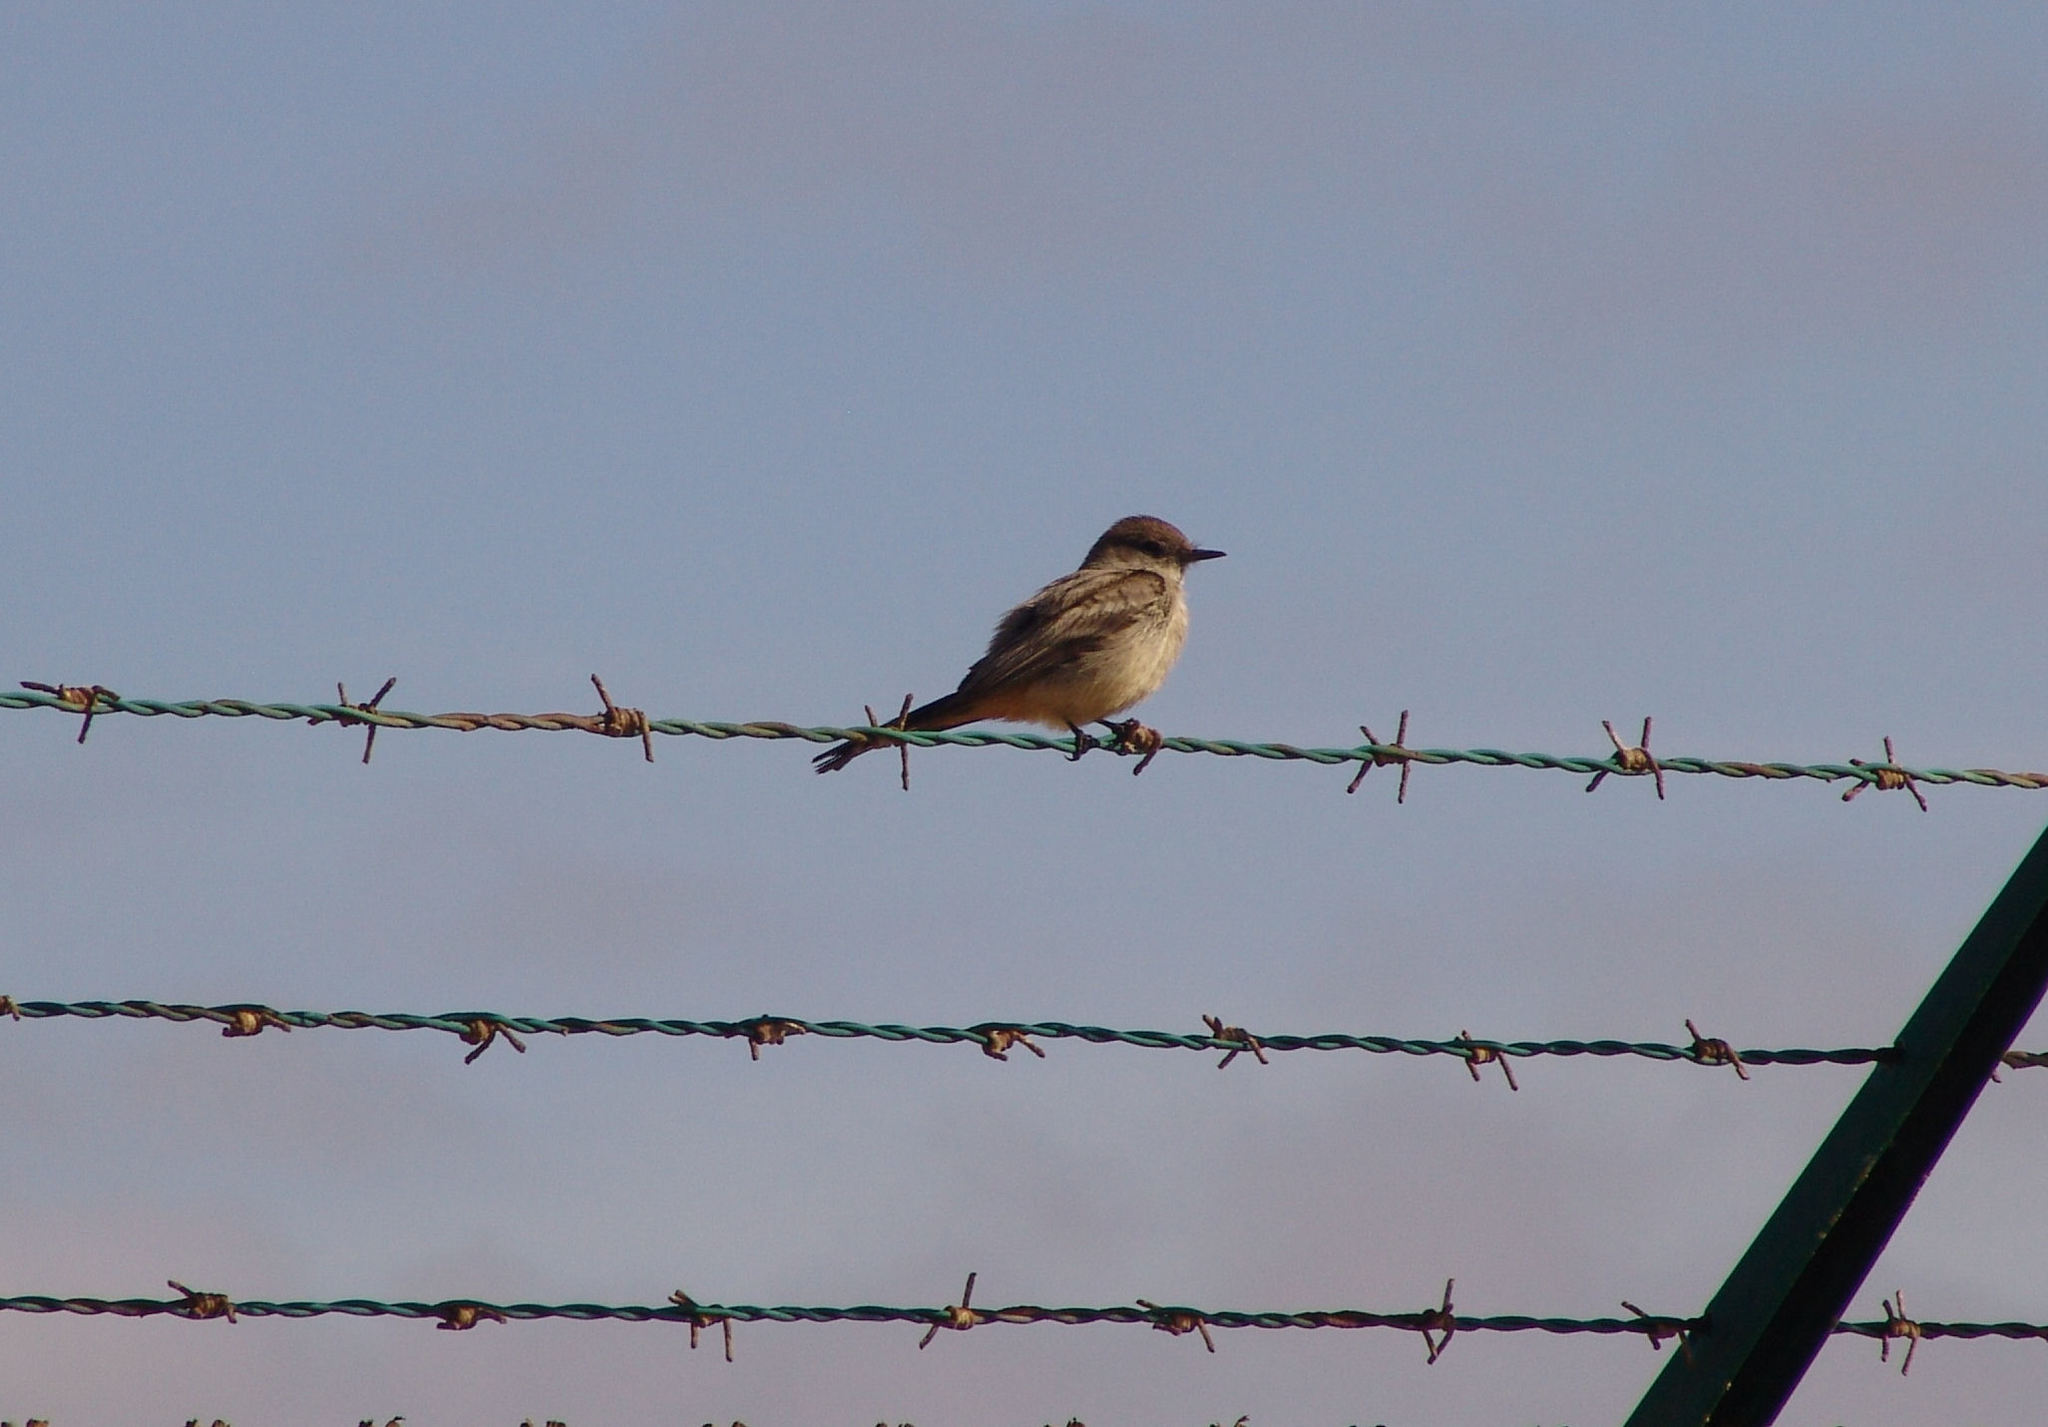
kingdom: Animalia
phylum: Chordata
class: Aves
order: Passeriformes
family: Tyrannidae
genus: Sayornis
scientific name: Sayornis saya
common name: Say's phoebe
